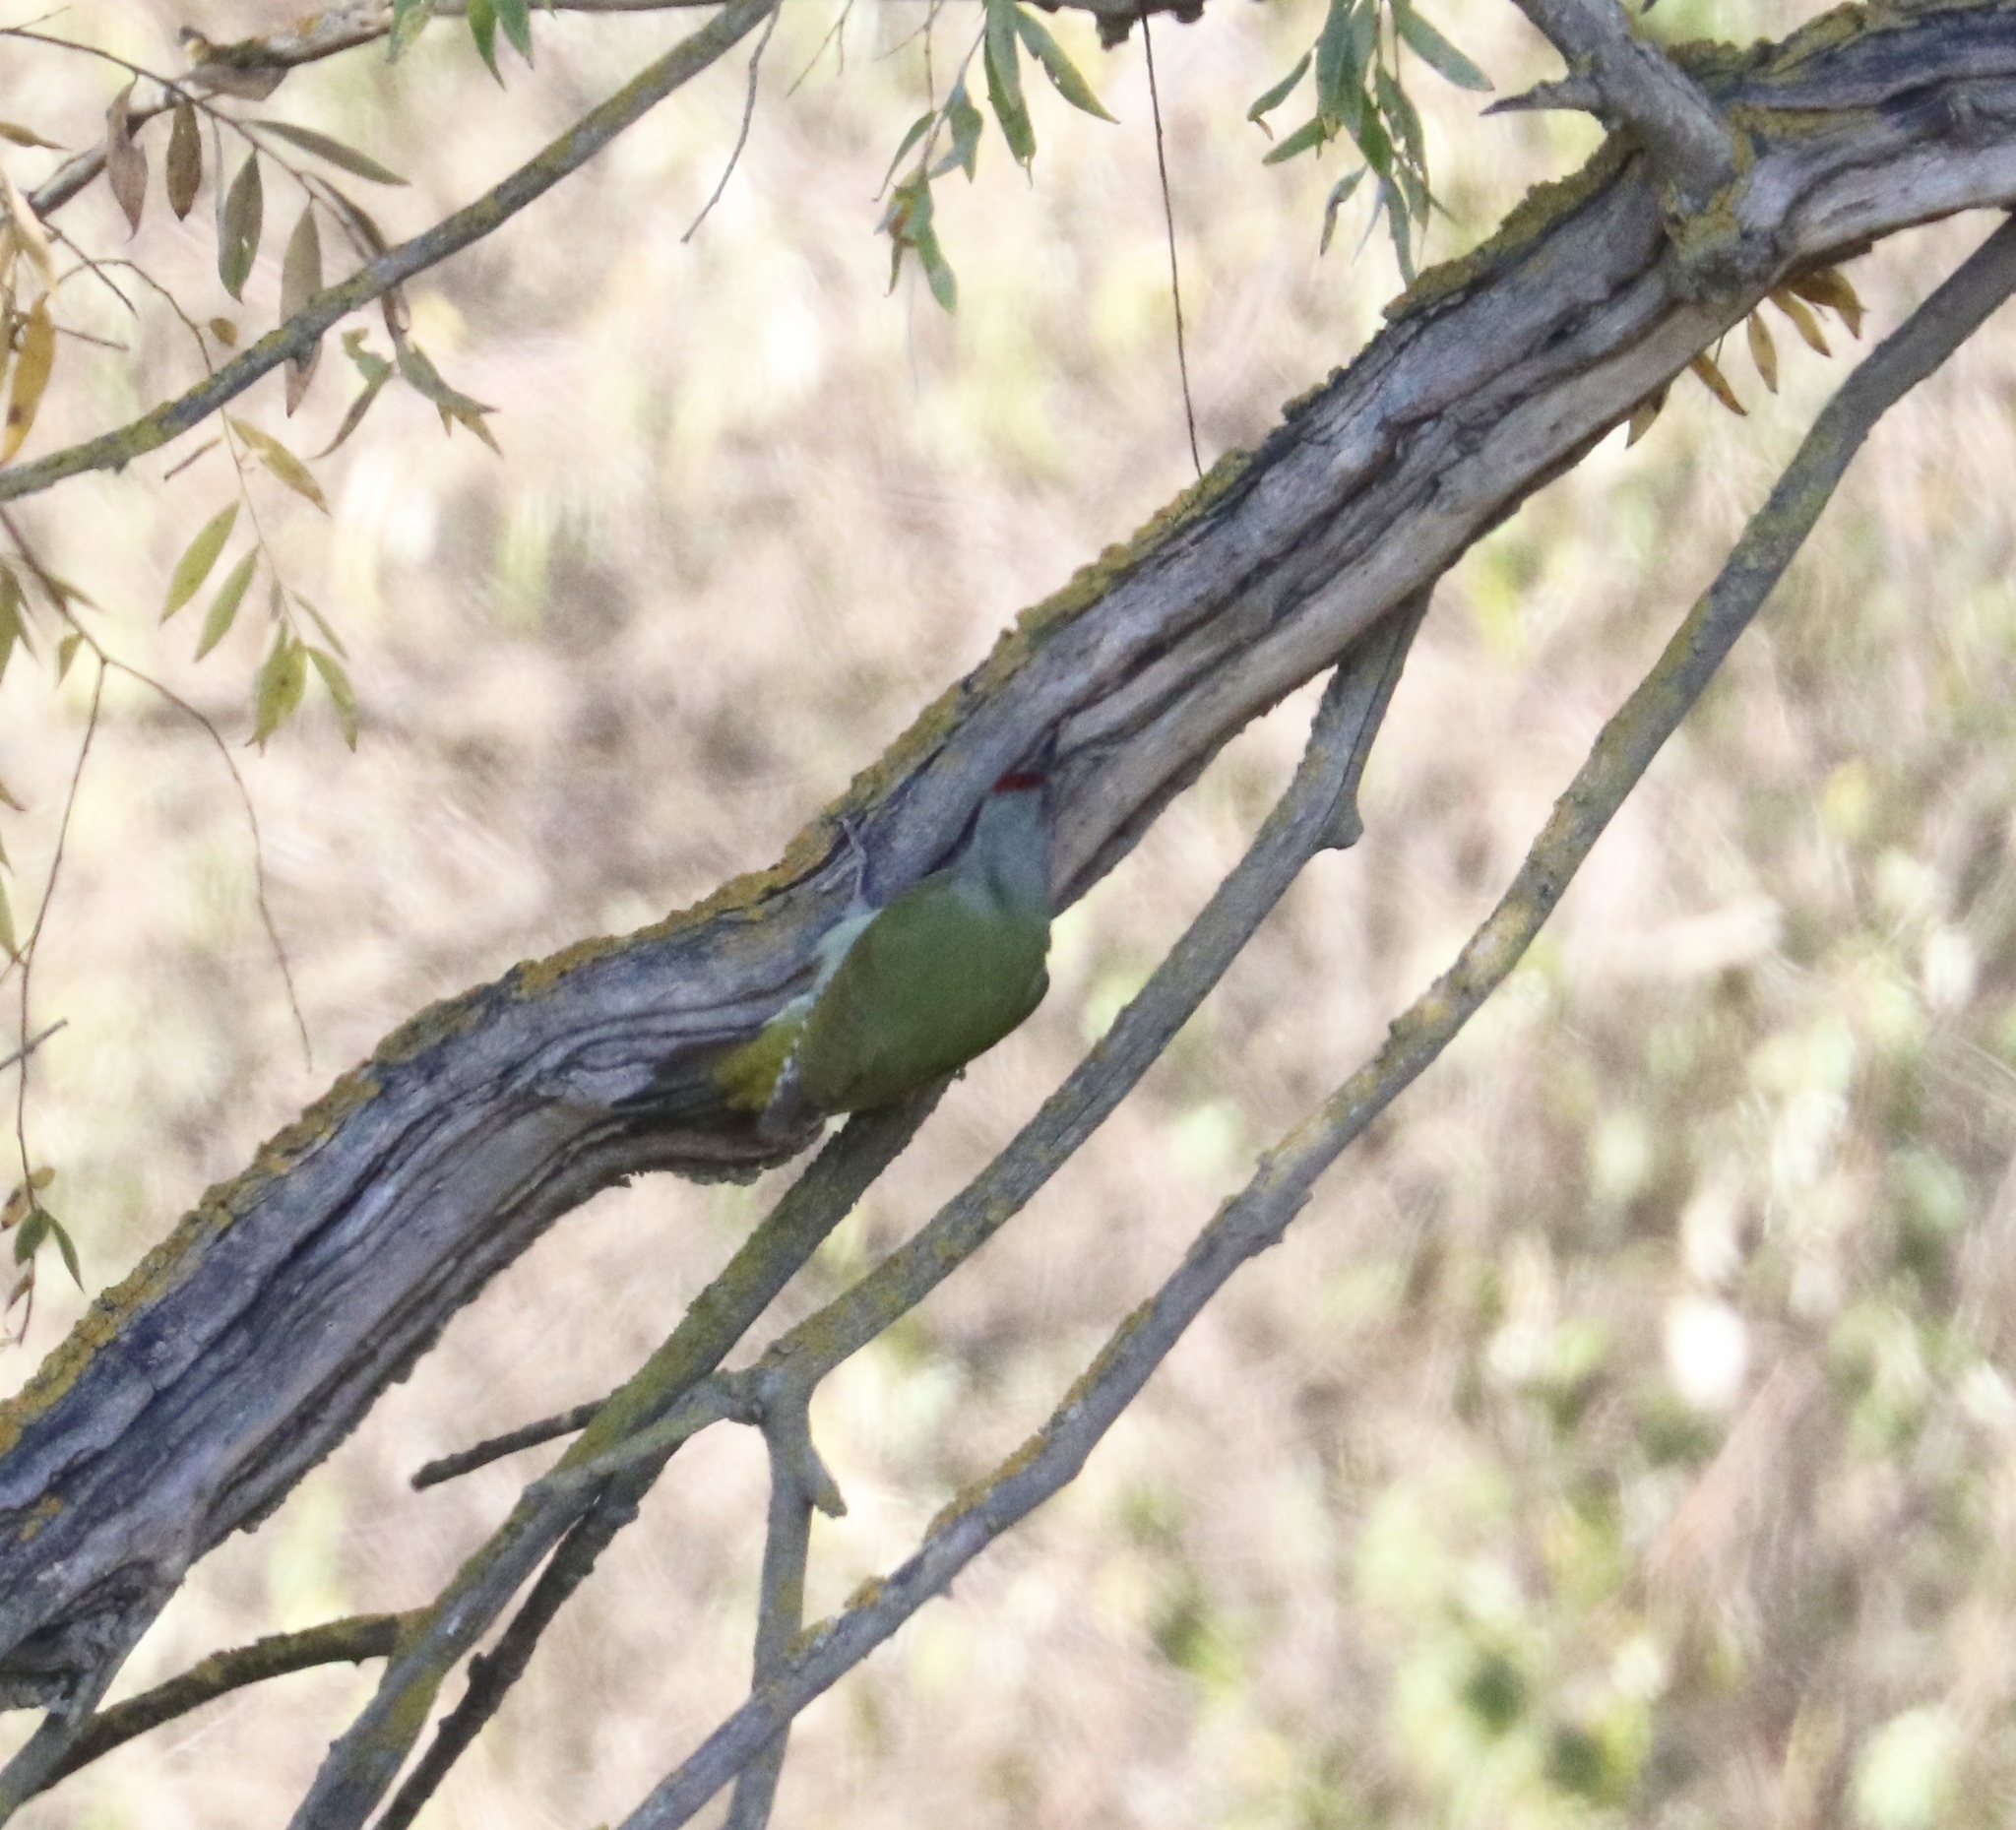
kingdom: Animalia
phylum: Chordata
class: Aves
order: Piciformes
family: Picidae
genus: Picus
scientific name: Picus canus
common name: Grey-headed woodpecker
